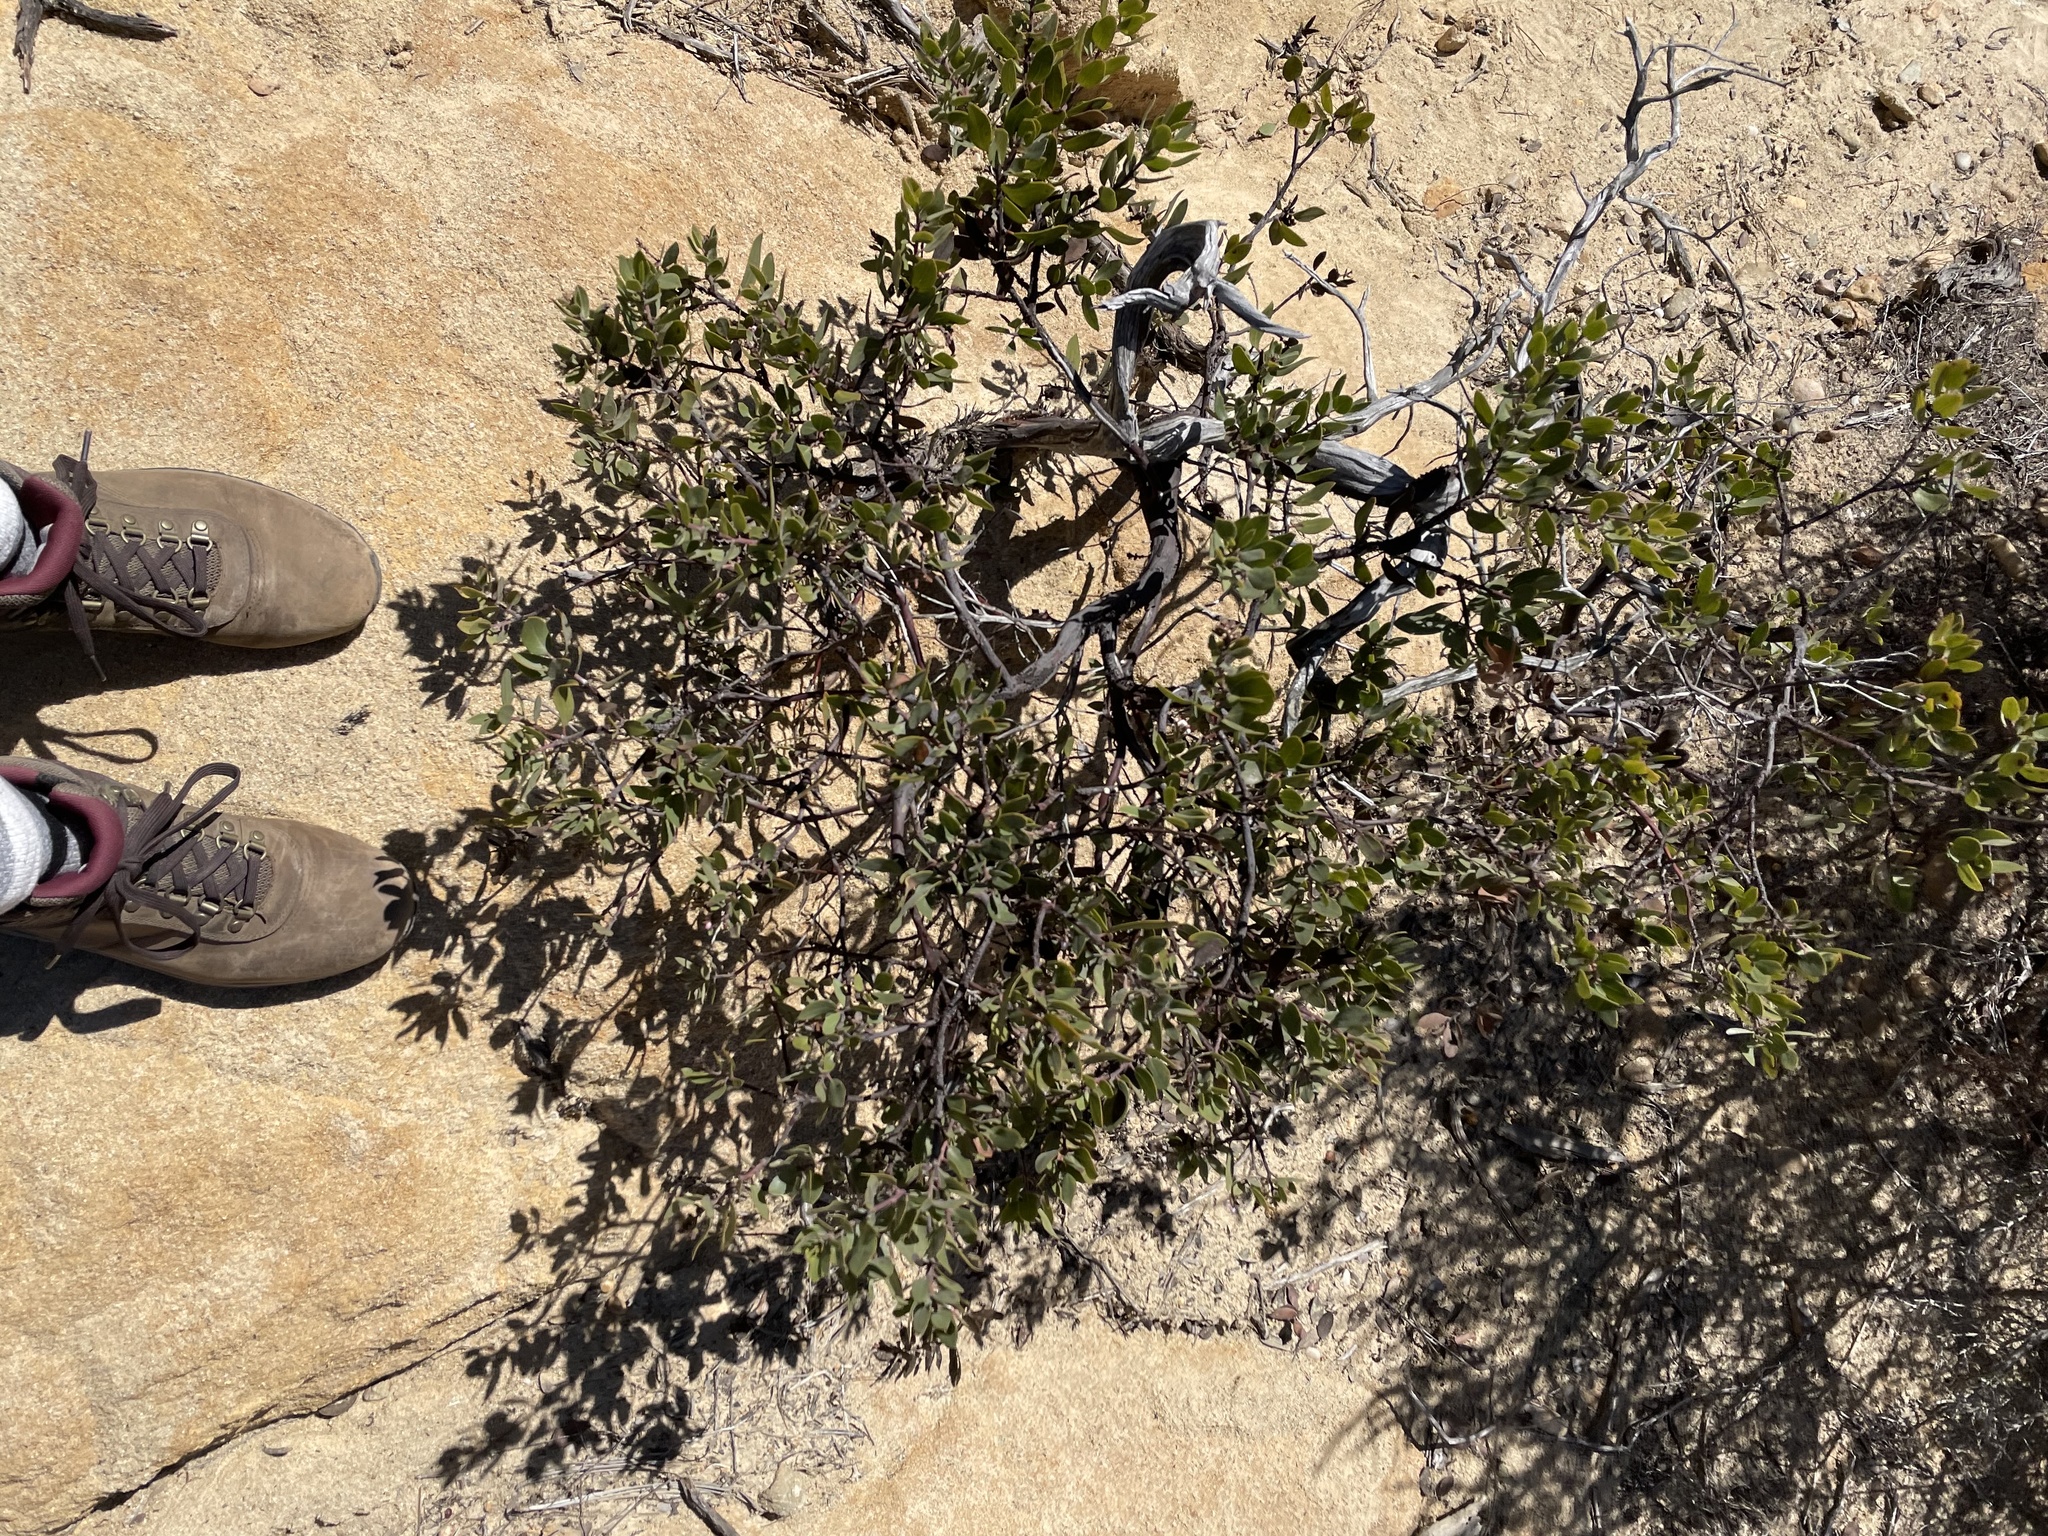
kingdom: Plantae
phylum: Tracheophyta
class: Magnoliopsida
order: Ericales
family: Ericaceae
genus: Arctostaphylos
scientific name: Arctostaphylos glandulosa
